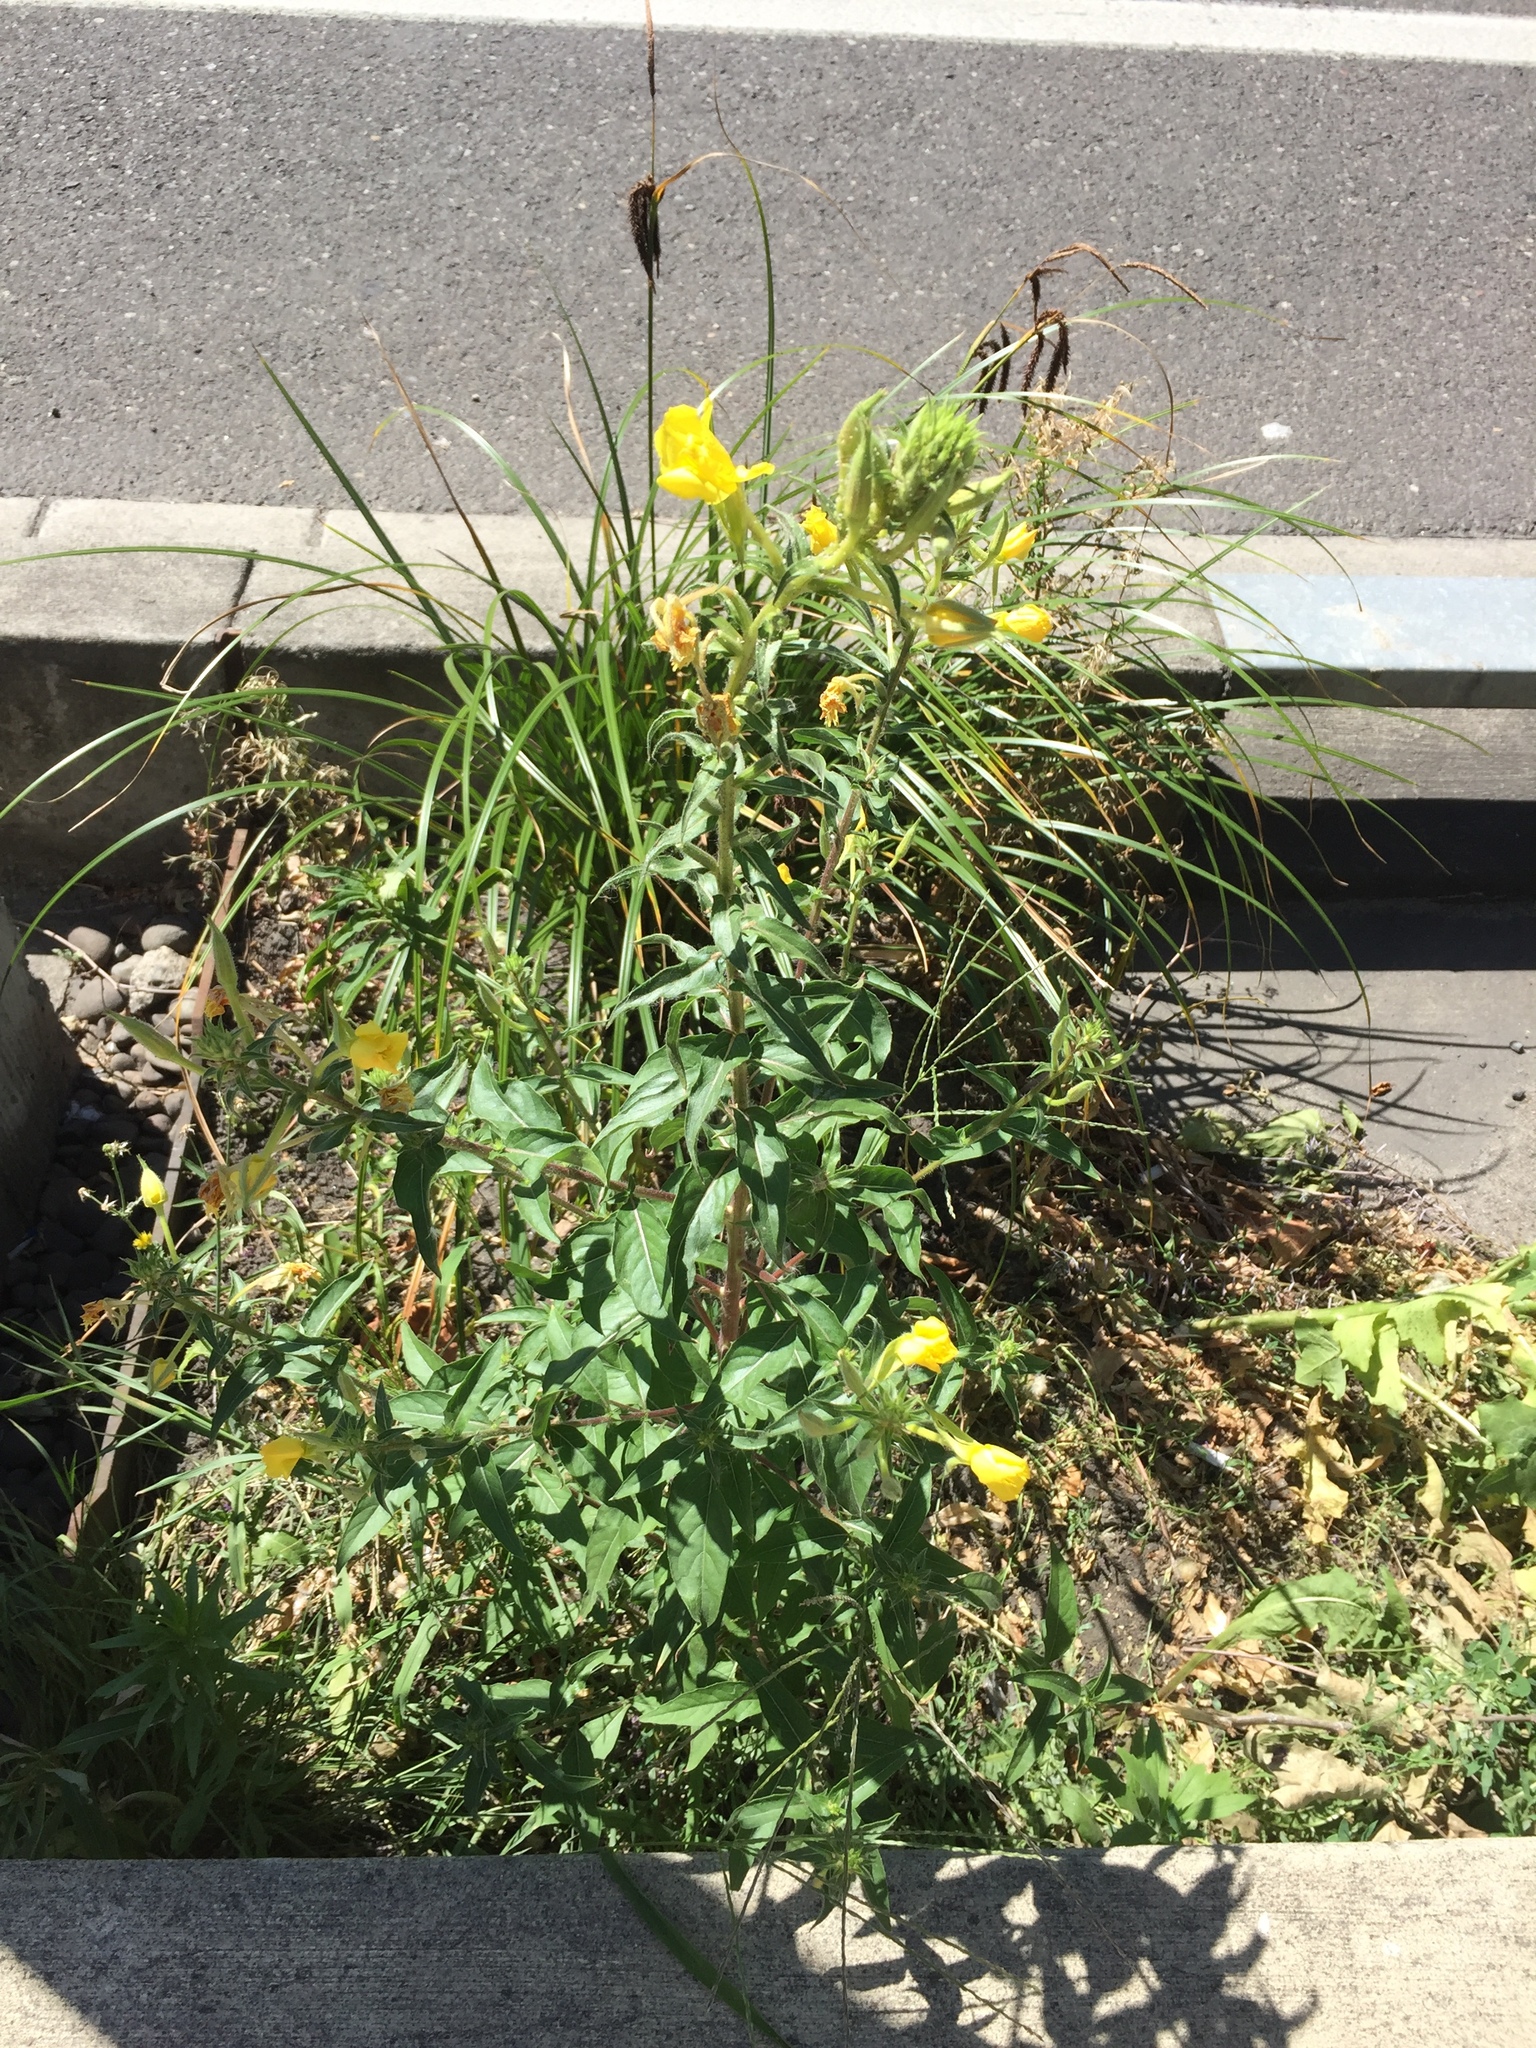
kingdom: Plantae
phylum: Tracheophyta
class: Magnoliopsida
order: Myrtales
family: Onagraceae
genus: Oenothera
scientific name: Oenothera biennis
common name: Common evening-primrose
